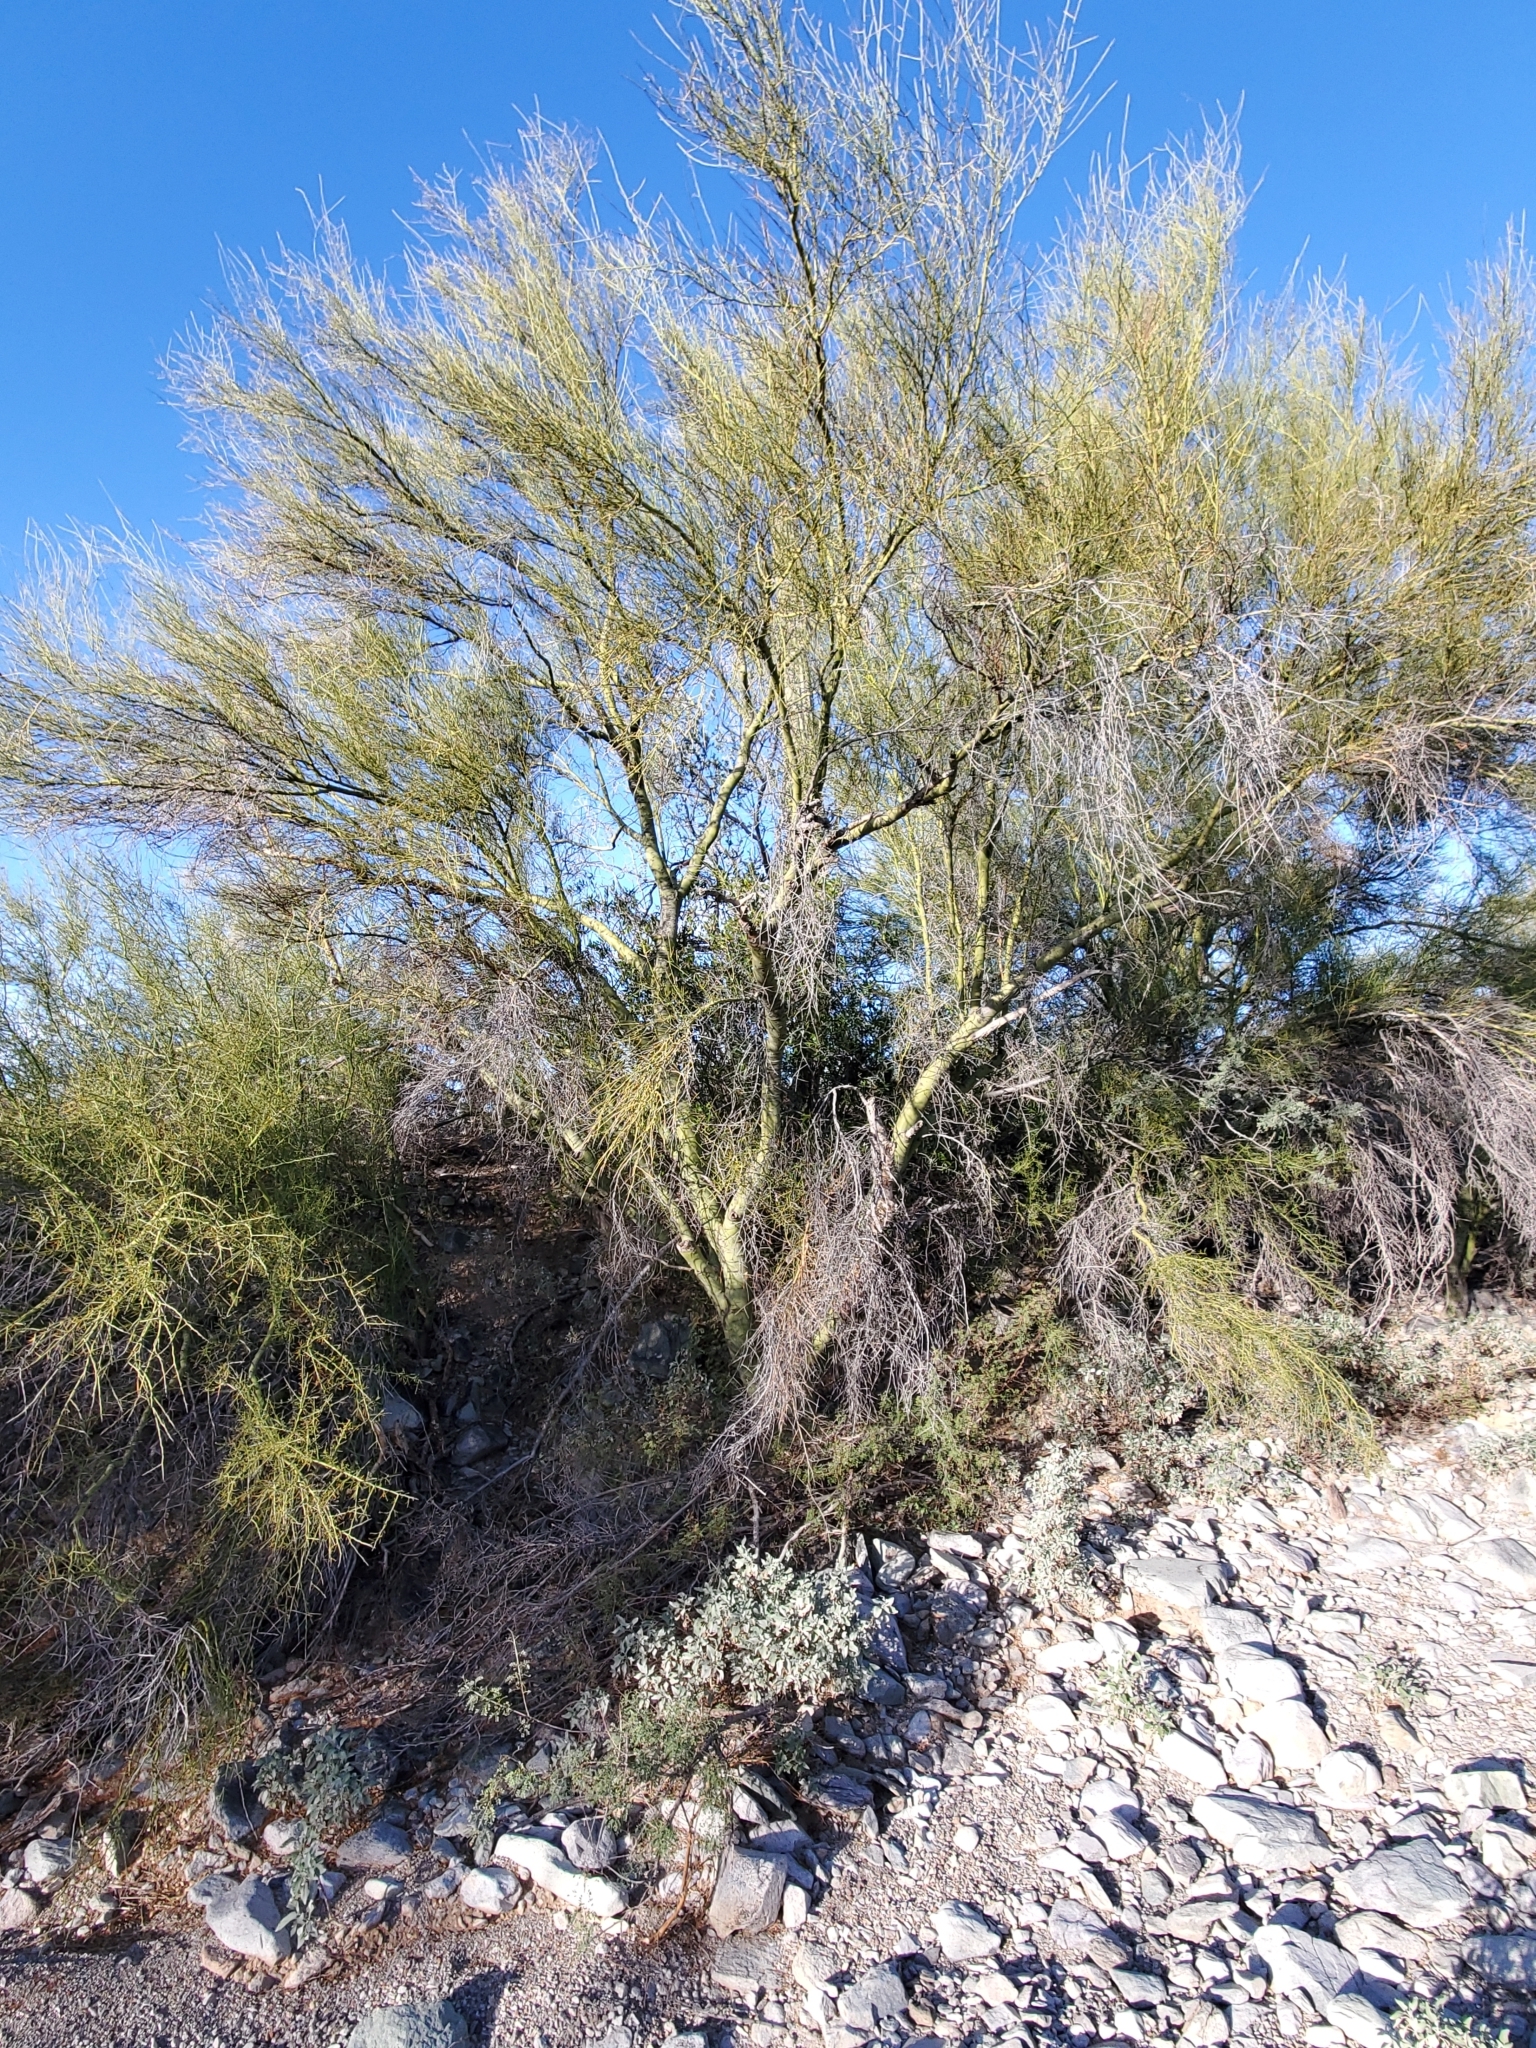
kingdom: Plantae
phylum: Tracheophyta
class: Magnoliopsida
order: Fabales
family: Fabaceae
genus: Parkinsonia
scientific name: Parkinsonia microphylla
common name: Yellow paloverde
